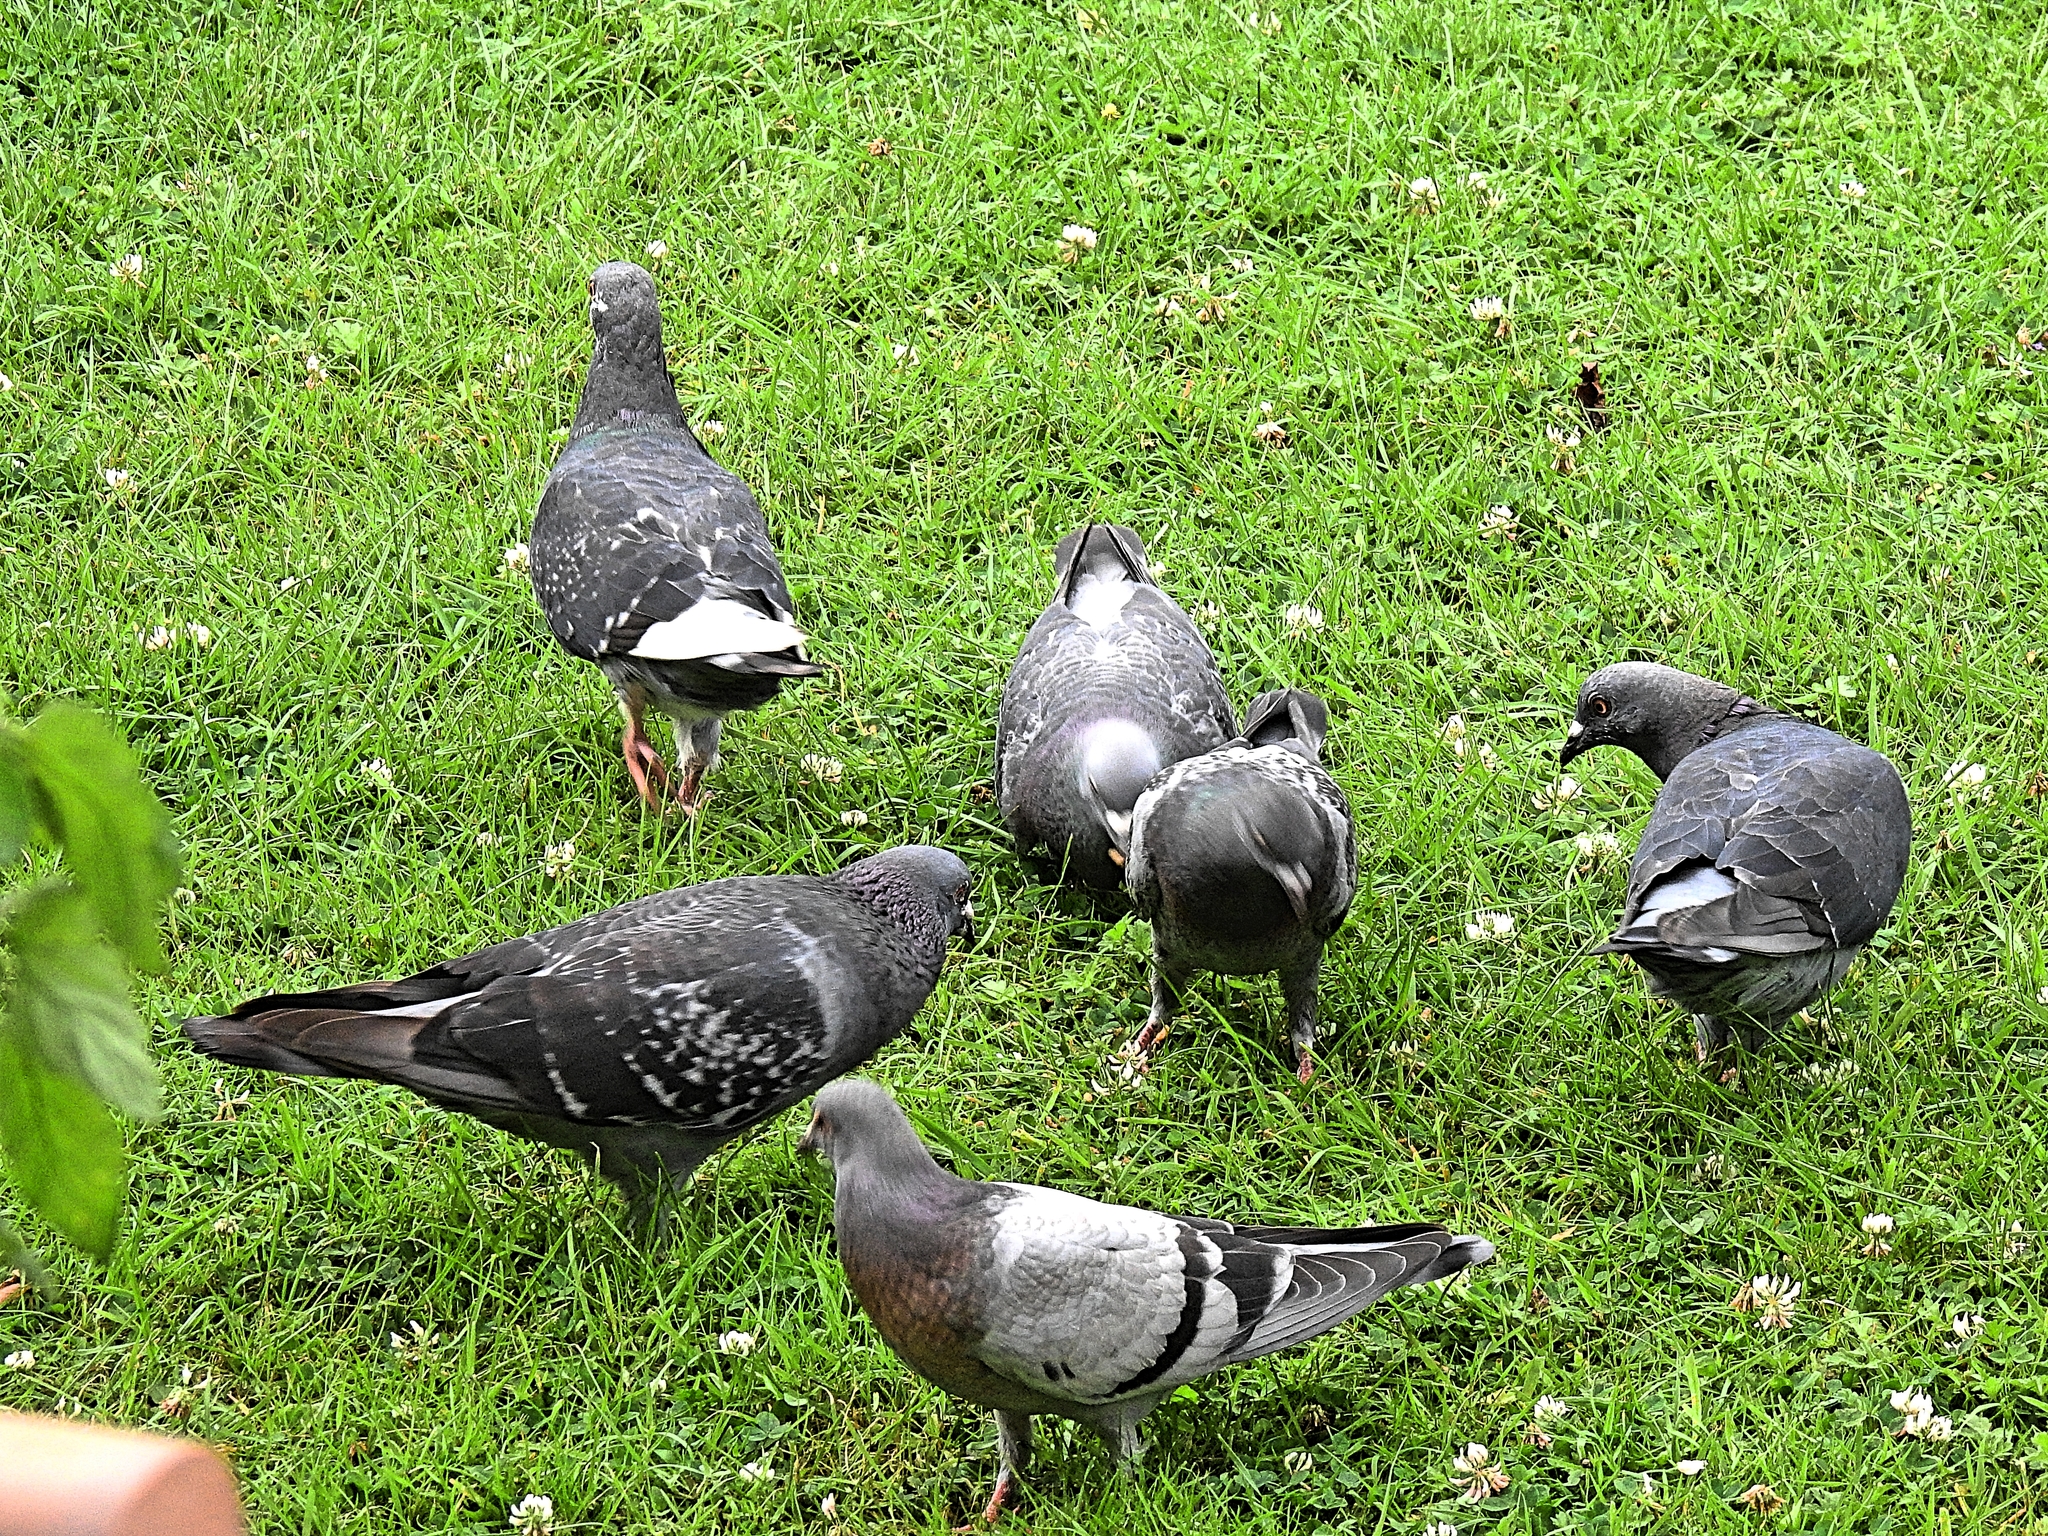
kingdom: Animalia
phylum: Chordata
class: Aves
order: Columbiformes
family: Columbidae
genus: Columba
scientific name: Columba livia
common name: Rock pigeon
